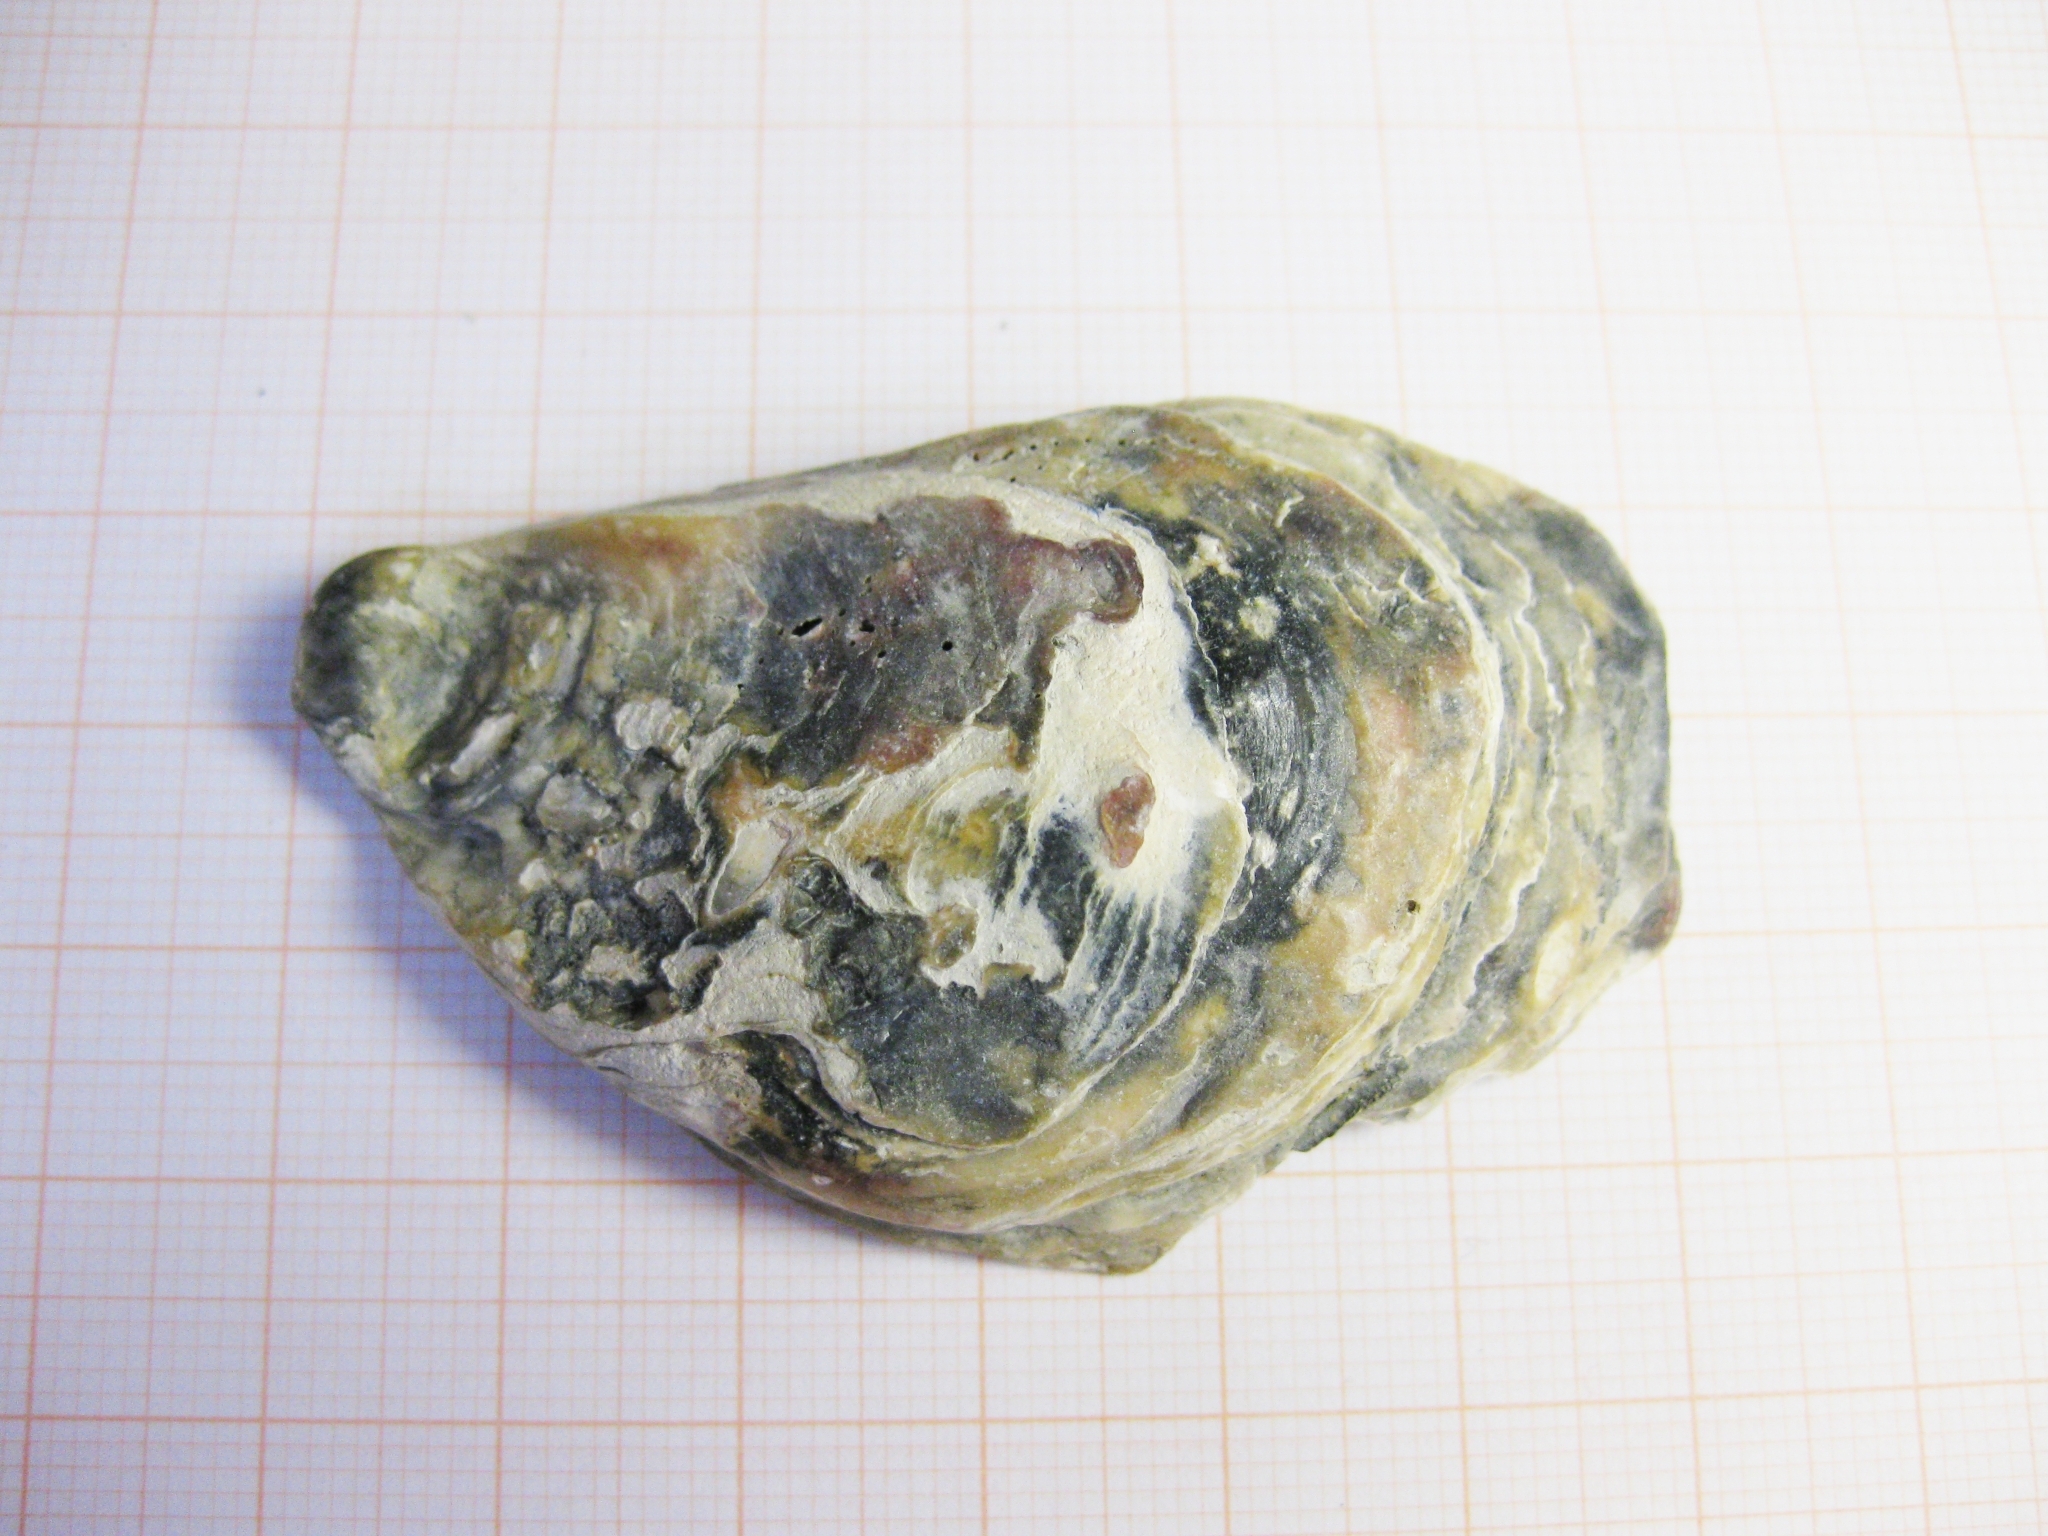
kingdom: Animalia
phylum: Mollusca
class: Bivalvia
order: Ostreida
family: Ostreidae
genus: Ostrea
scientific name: Ostrea edulis
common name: Flat oyster
